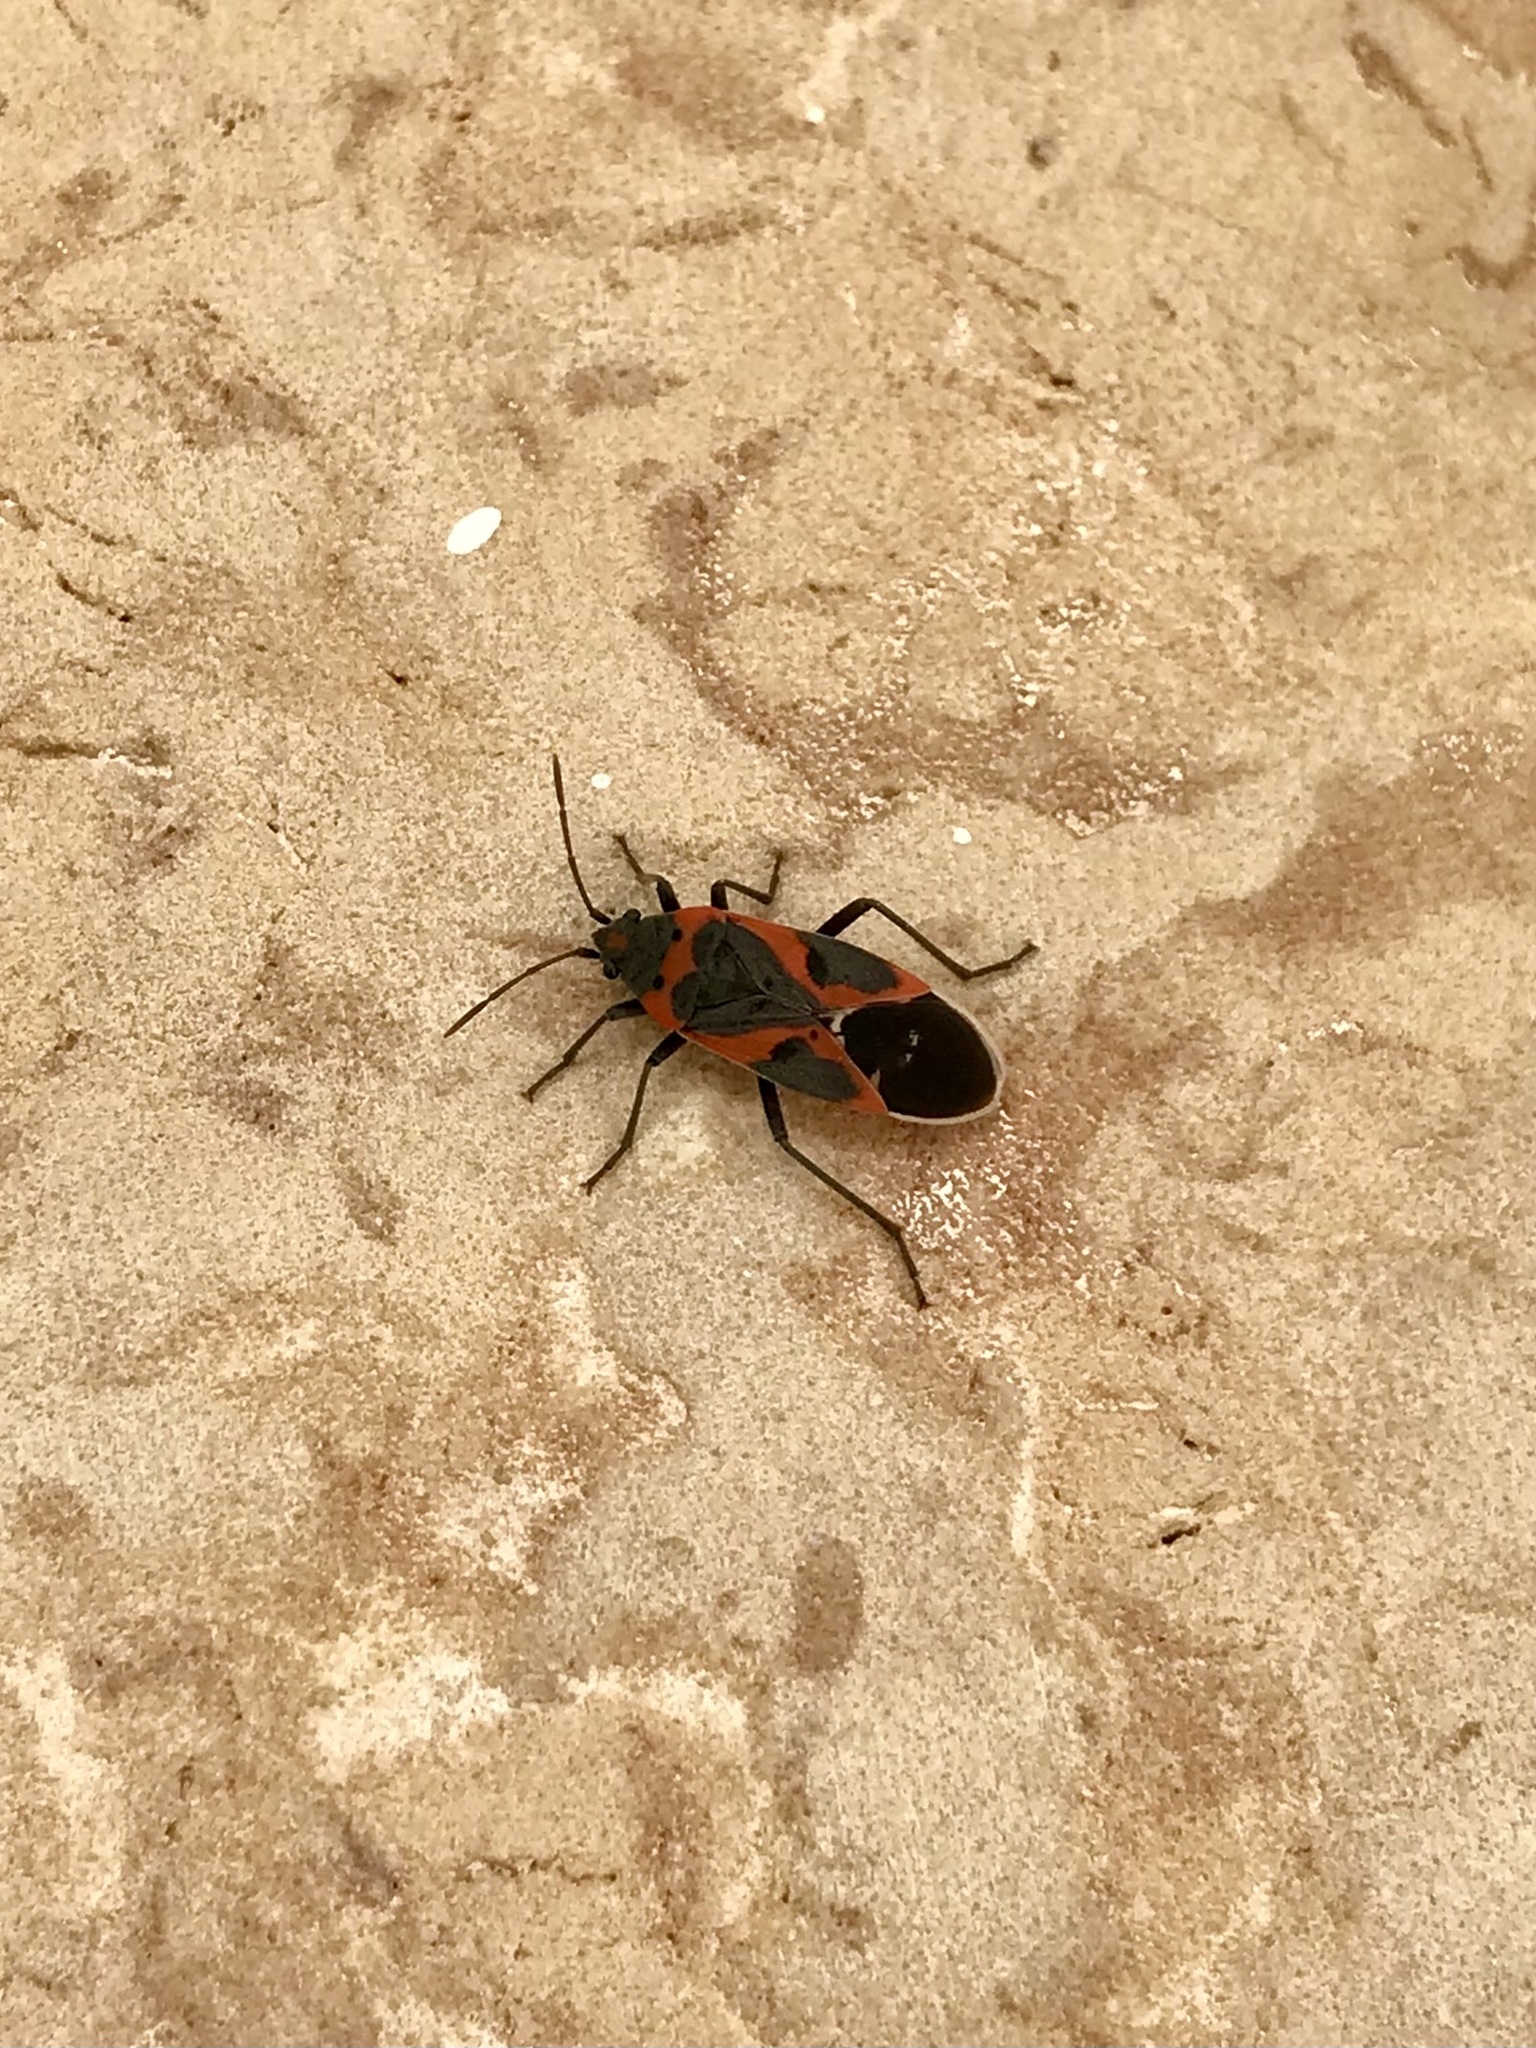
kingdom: Animalia
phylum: Arthropoda
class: Insecta
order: Hemiptera
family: Lygaeidae
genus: Lygaeus
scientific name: Lygaeus kalmii
